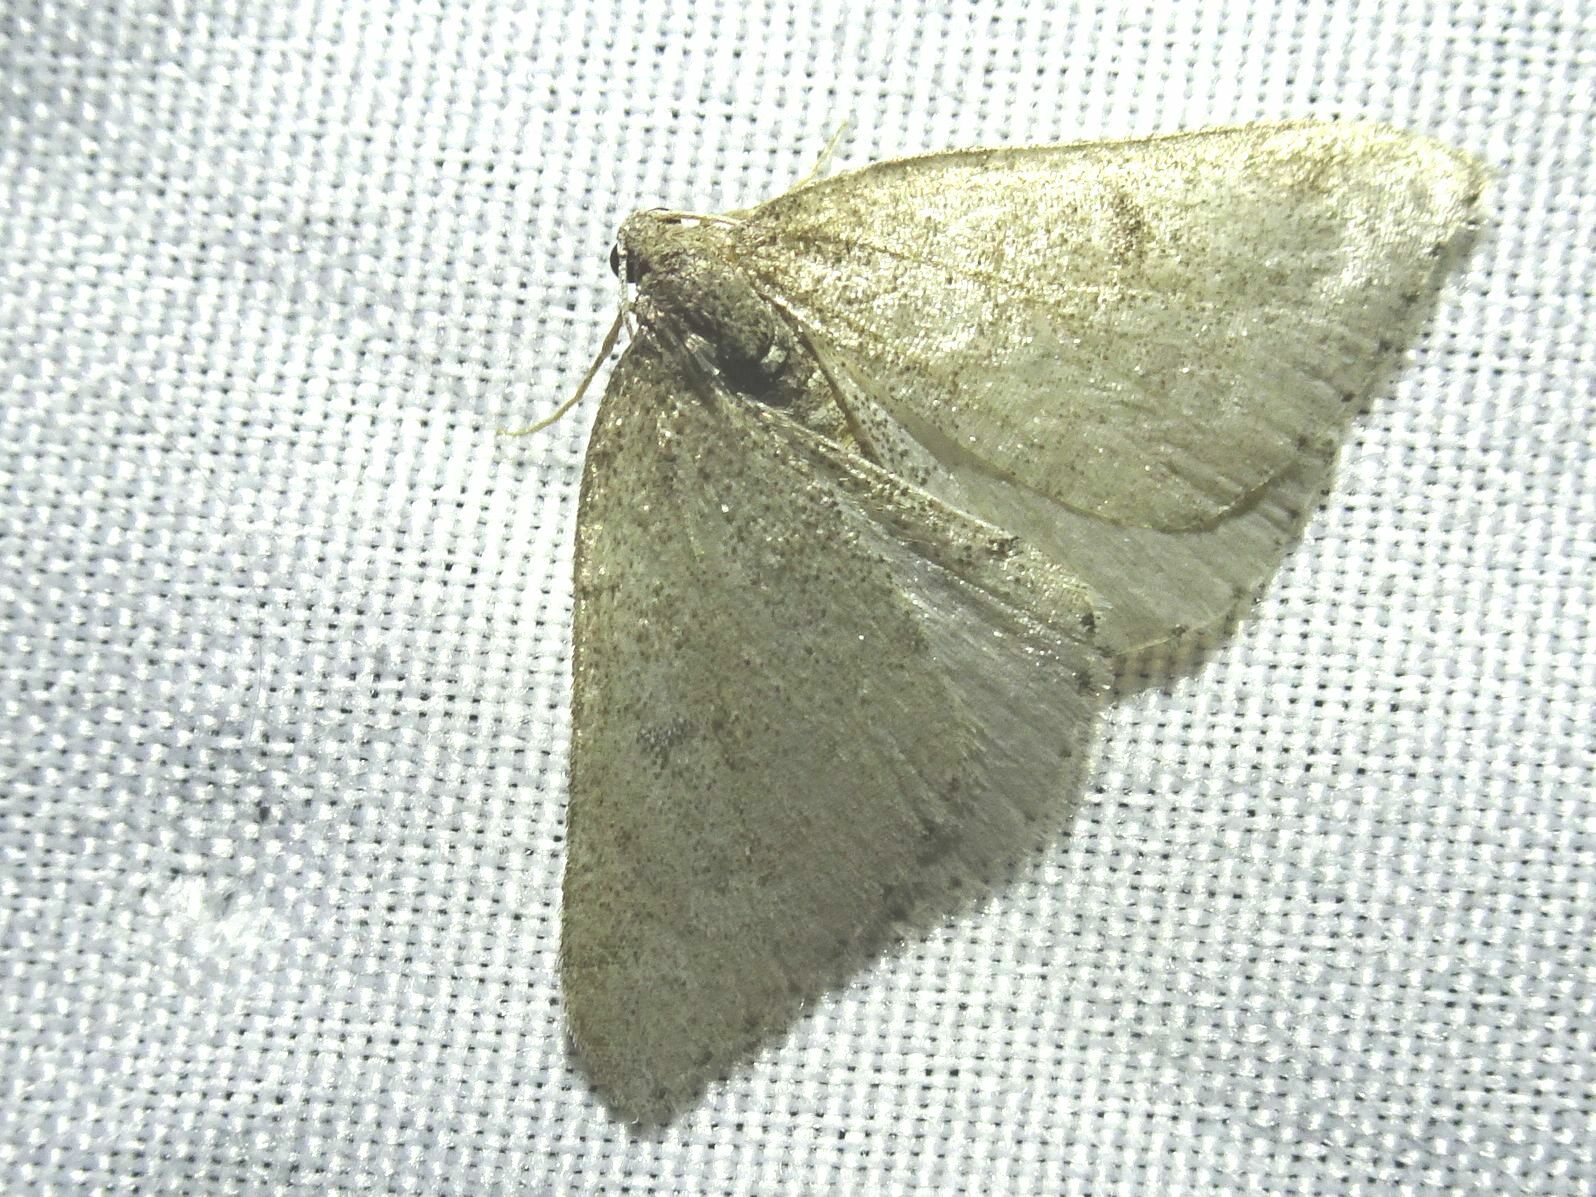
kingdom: Animalia
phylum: Arthropoda
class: Insecta
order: Lepidoptera
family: Geometridae
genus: Aleucis
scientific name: Aleucis distinctata
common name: Sloe carpet
